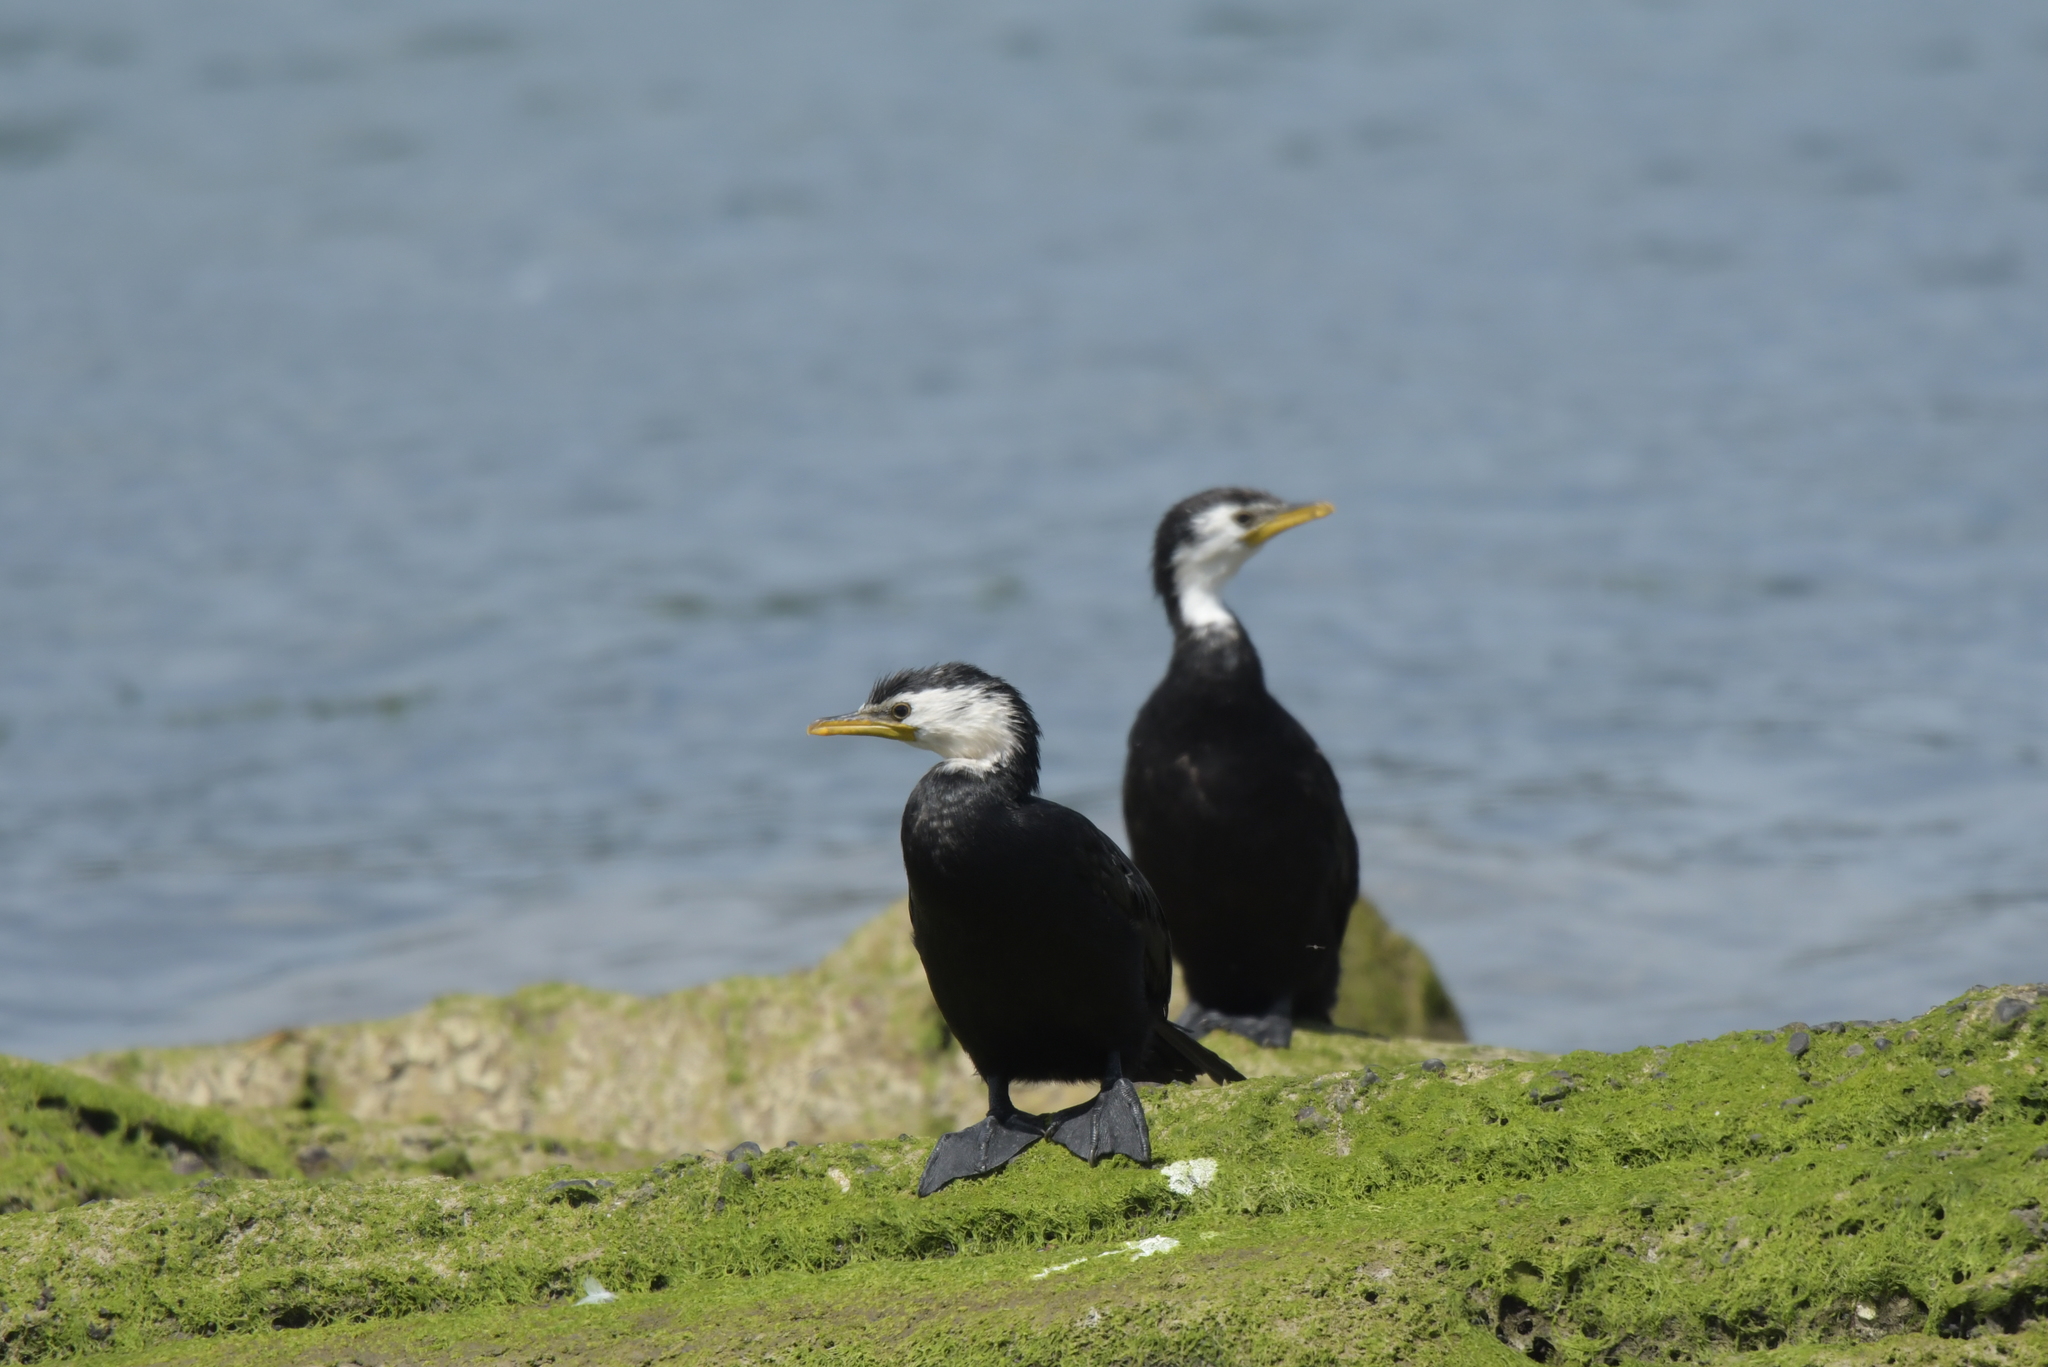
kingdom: Animalia
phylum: Chordata
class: Aves
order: Suliformes
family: Phalacrocoracidae
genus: Microcarbo
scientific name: Microcarbo melanoleucos
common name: Little pied cormorant
